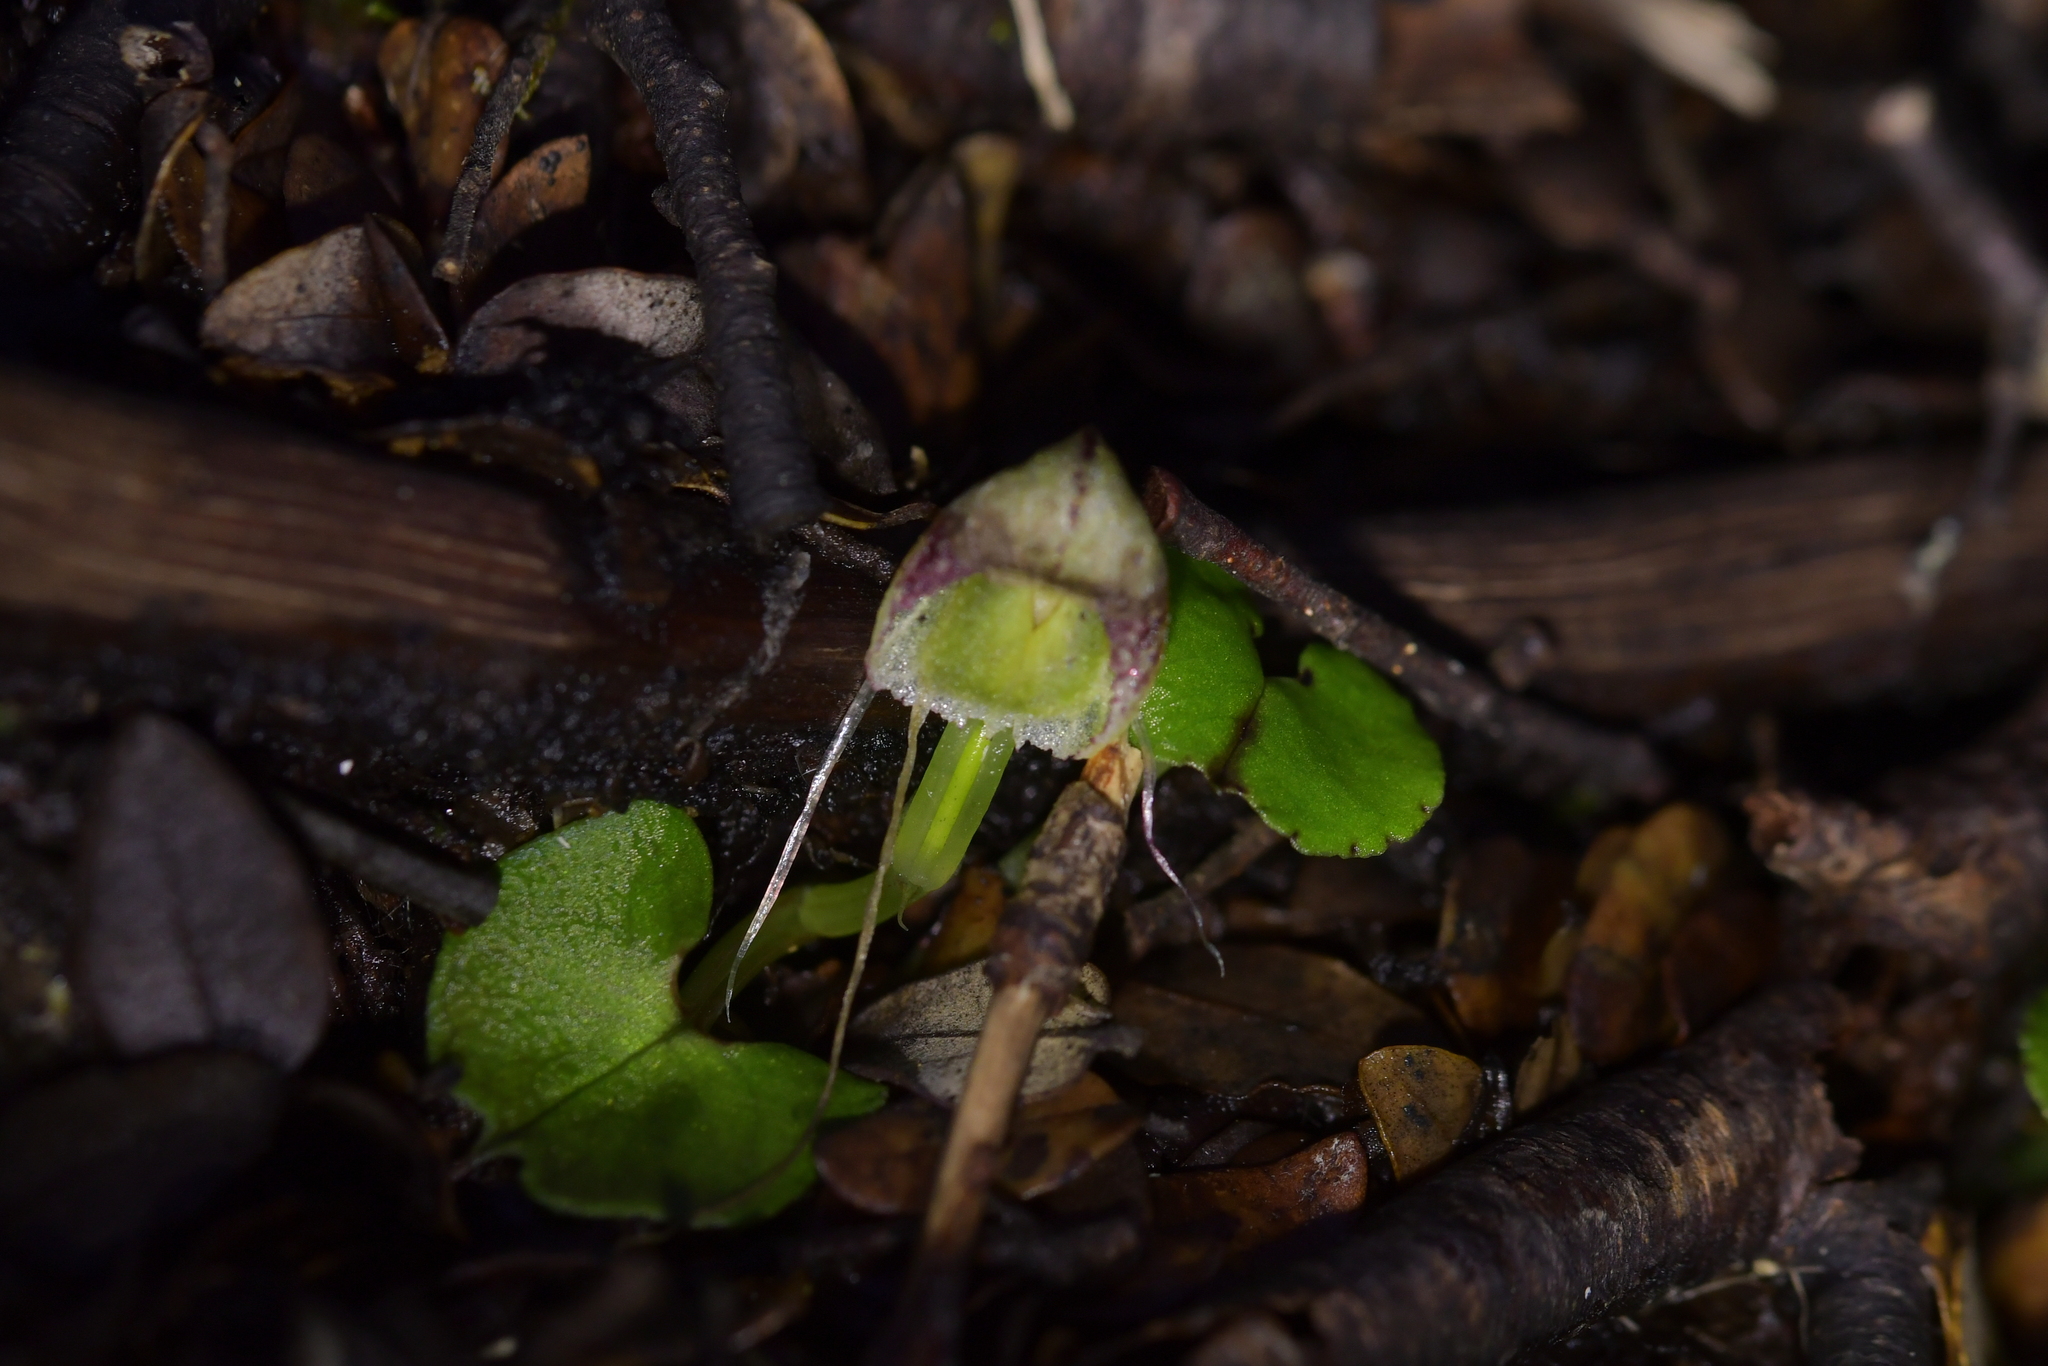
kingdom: Plantae
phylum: Tracheophyta
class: Liliopsida
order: Asparagales
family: Orchidaceae
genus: Corybas
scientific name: Corybas walliae
